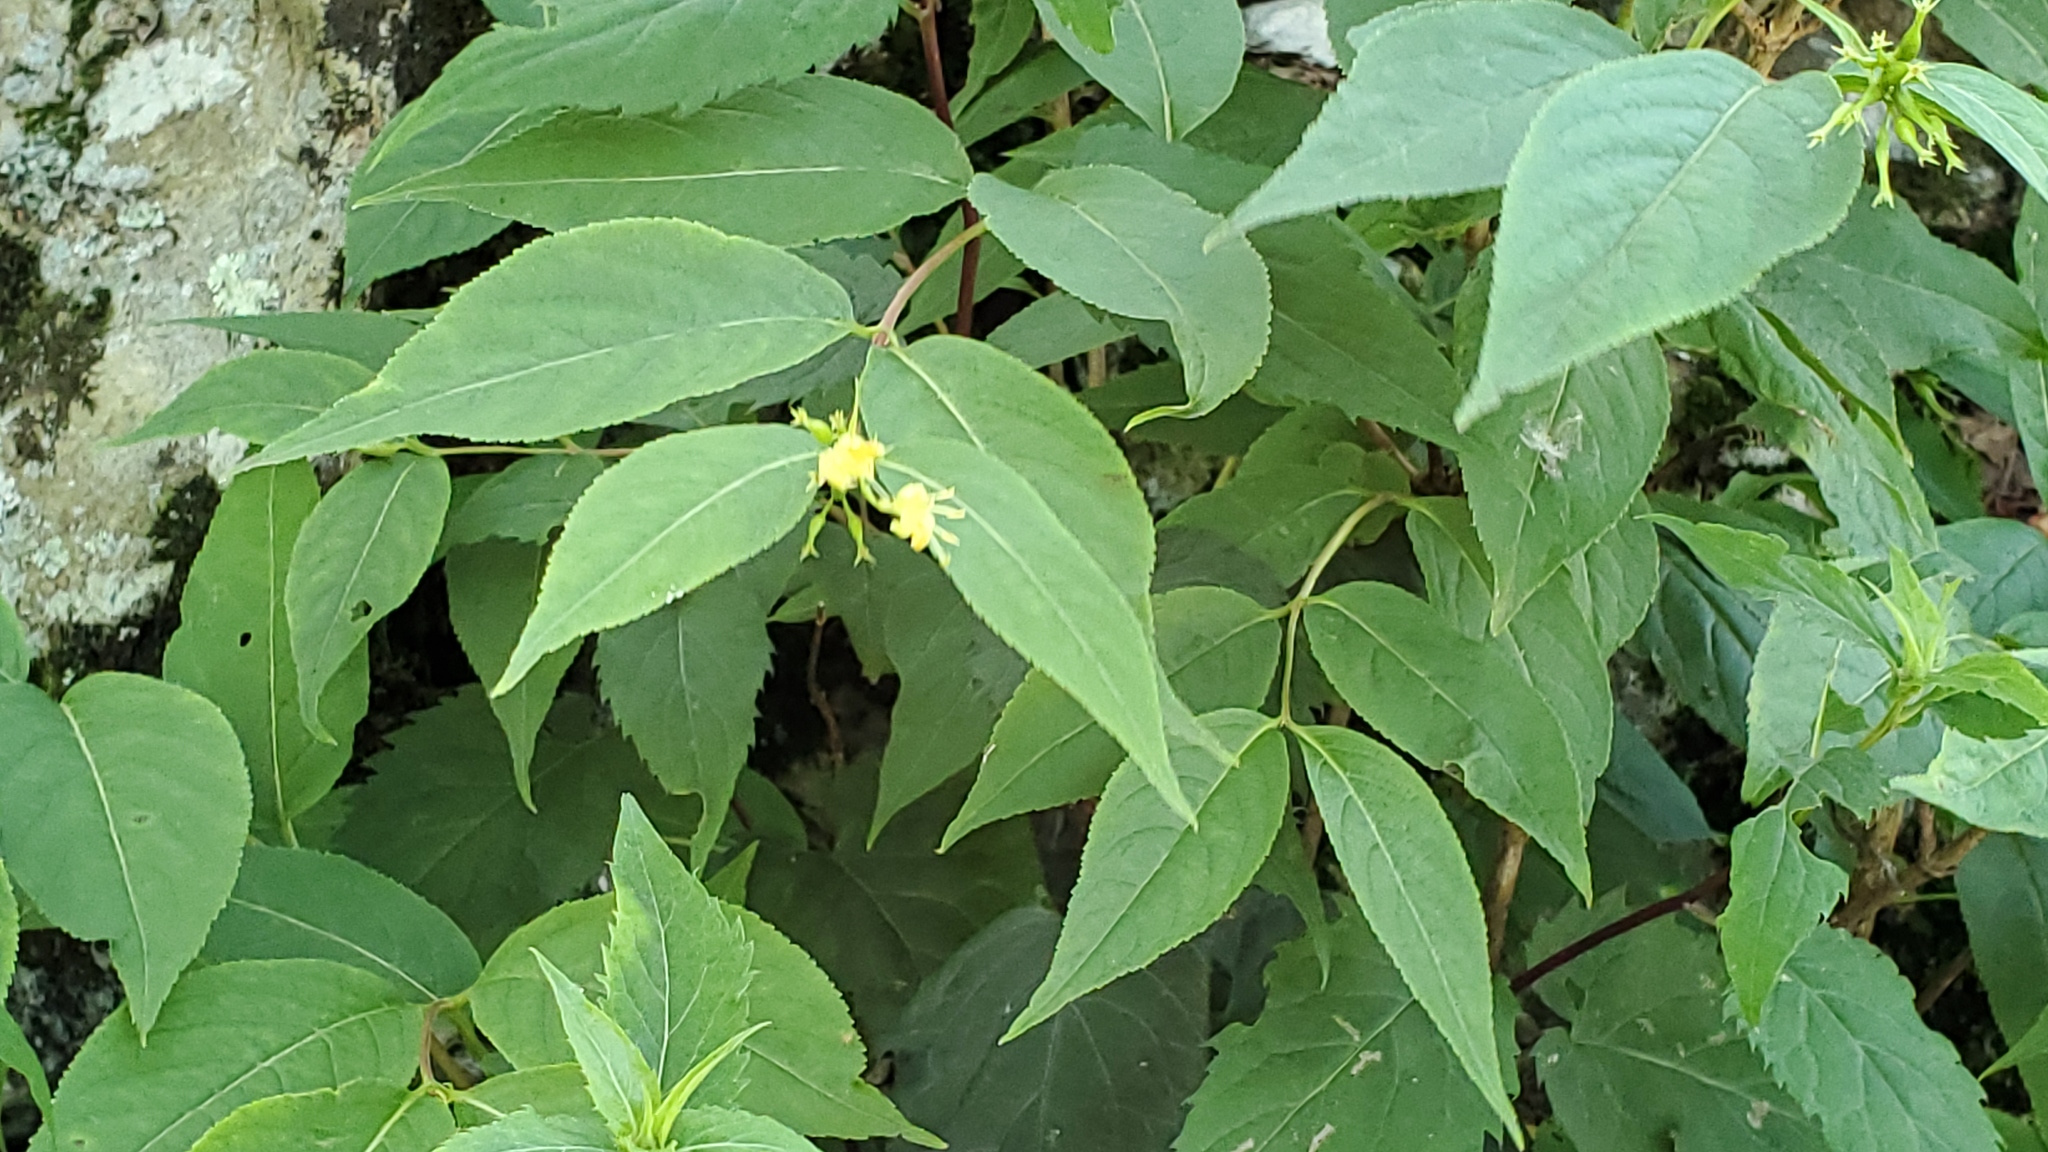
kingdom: Plantae
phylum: Tracheophyta
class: Magnoliopsida
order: Dipsacales
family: Caprifoliaceae
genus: Diervilla
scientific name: Diervilla lonicera
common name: Bush-honeysuckle
